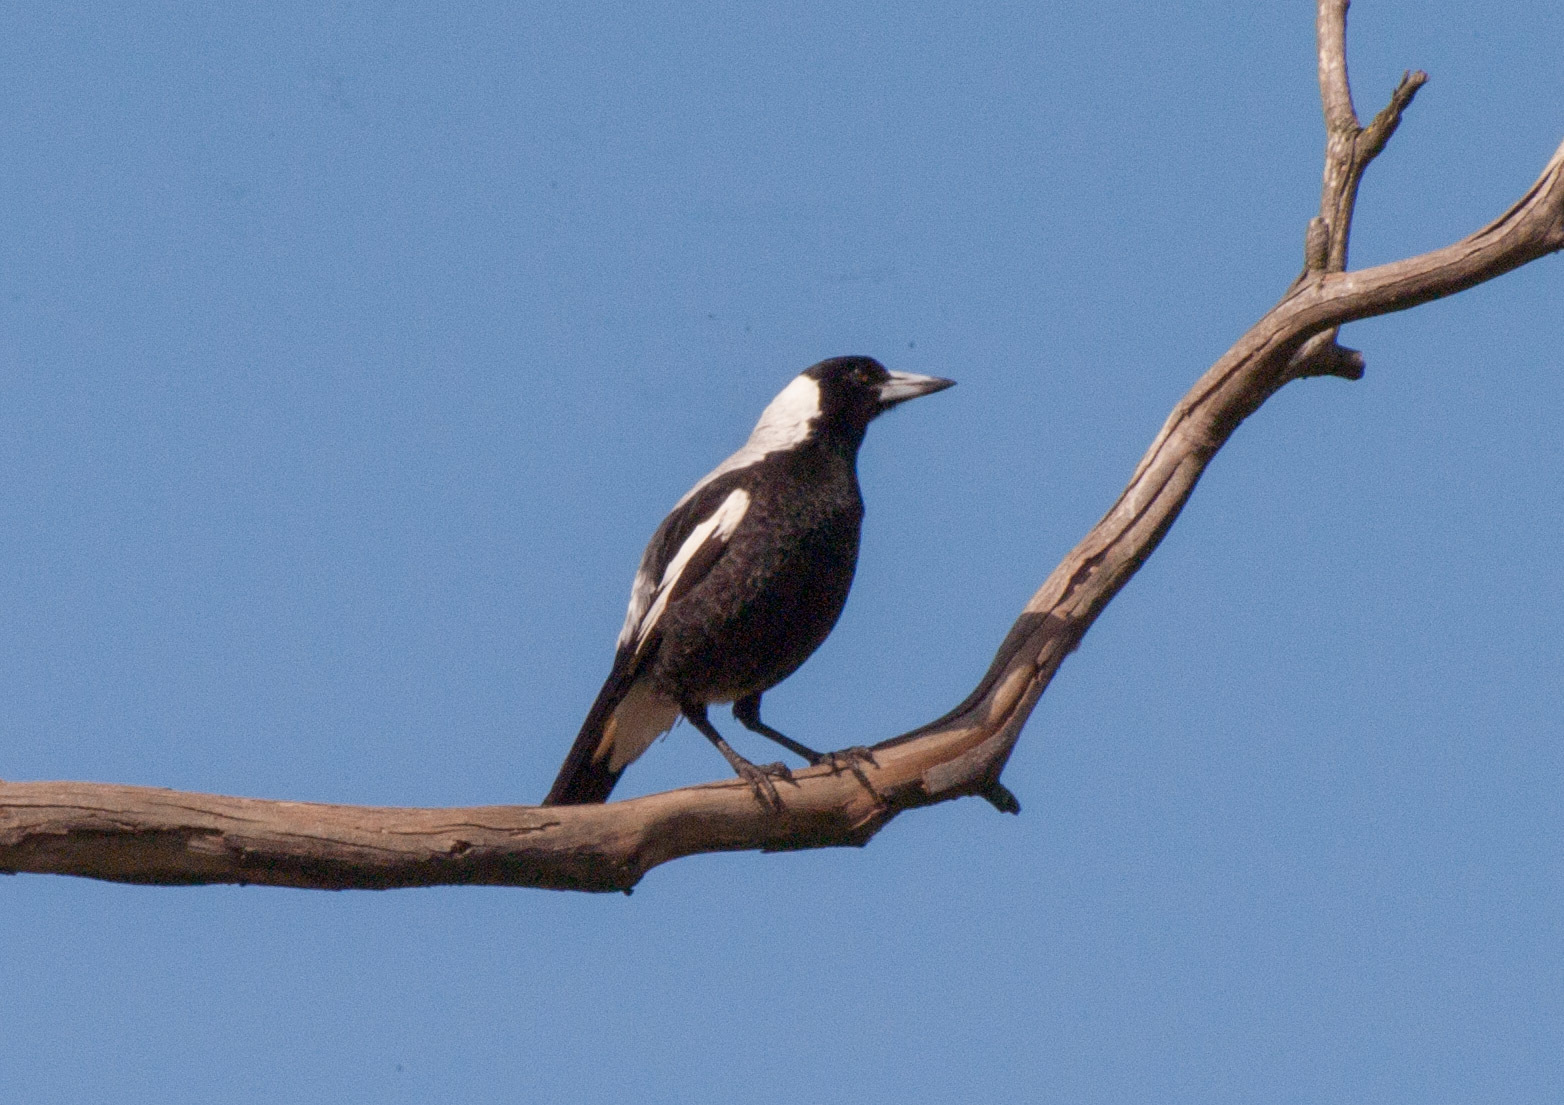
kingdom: Animalia
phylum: Chordata
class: Aves
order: Passeriformes
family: Cracticidae
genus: Gymnorhina
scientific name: Gymnorhina tibicen
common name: Australian magpie
